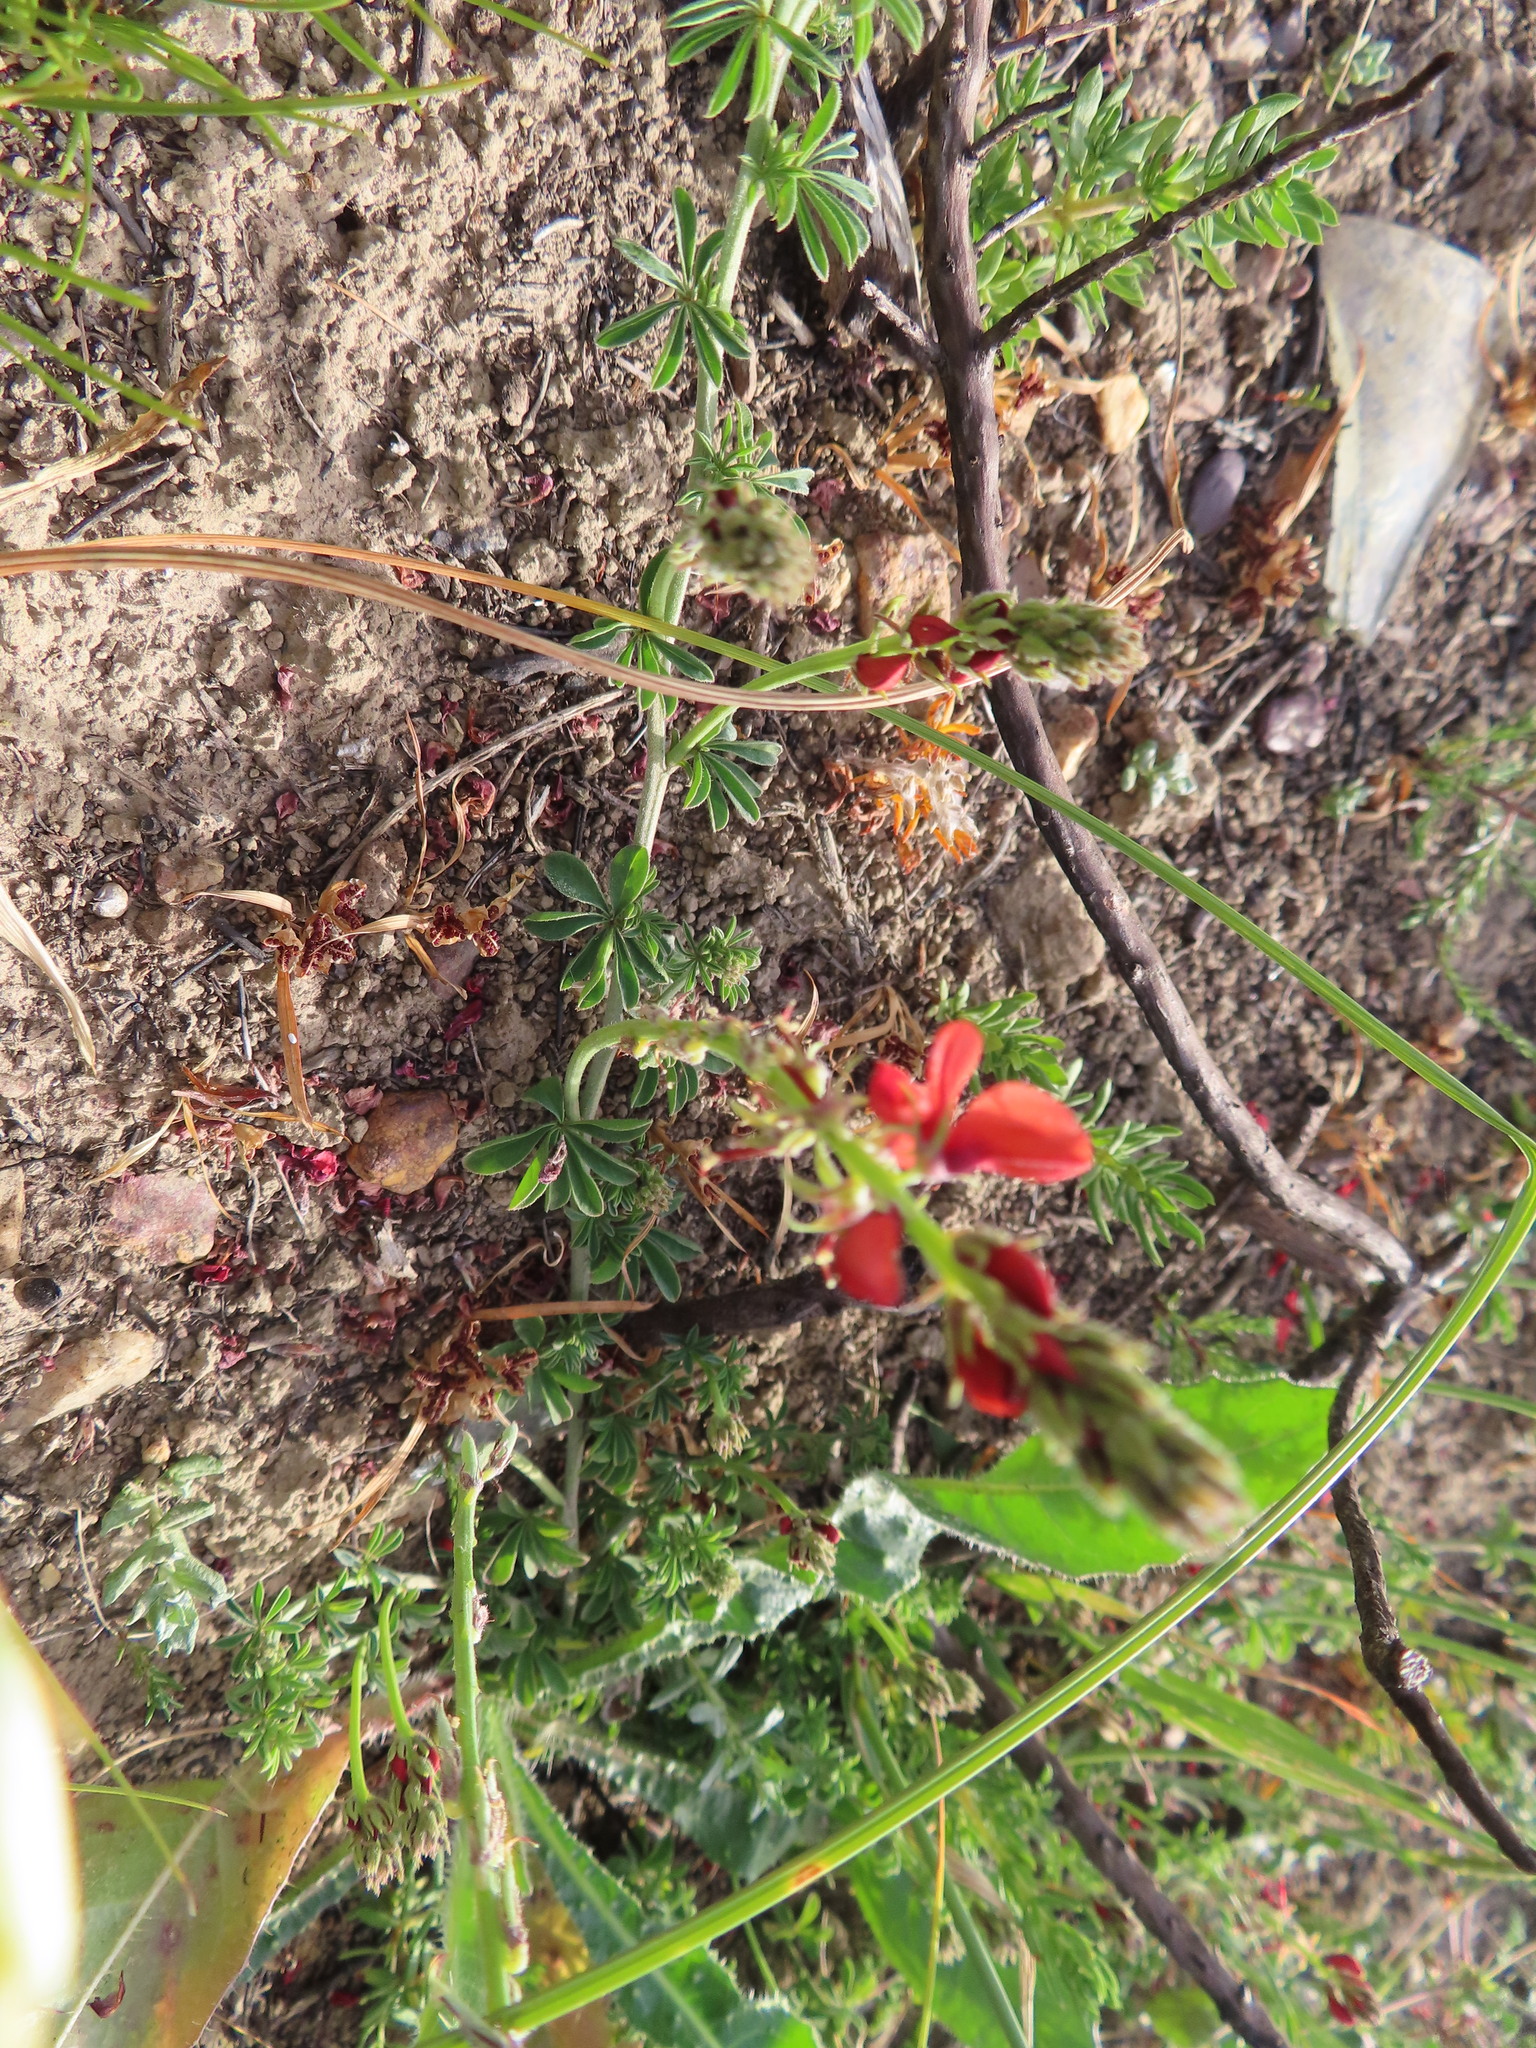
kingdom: Plantae
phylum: Tracheophyta
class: Magnoliopsida
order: Fabales
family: Fabaceae
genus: Indigofera
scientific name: Indigofera digitata
